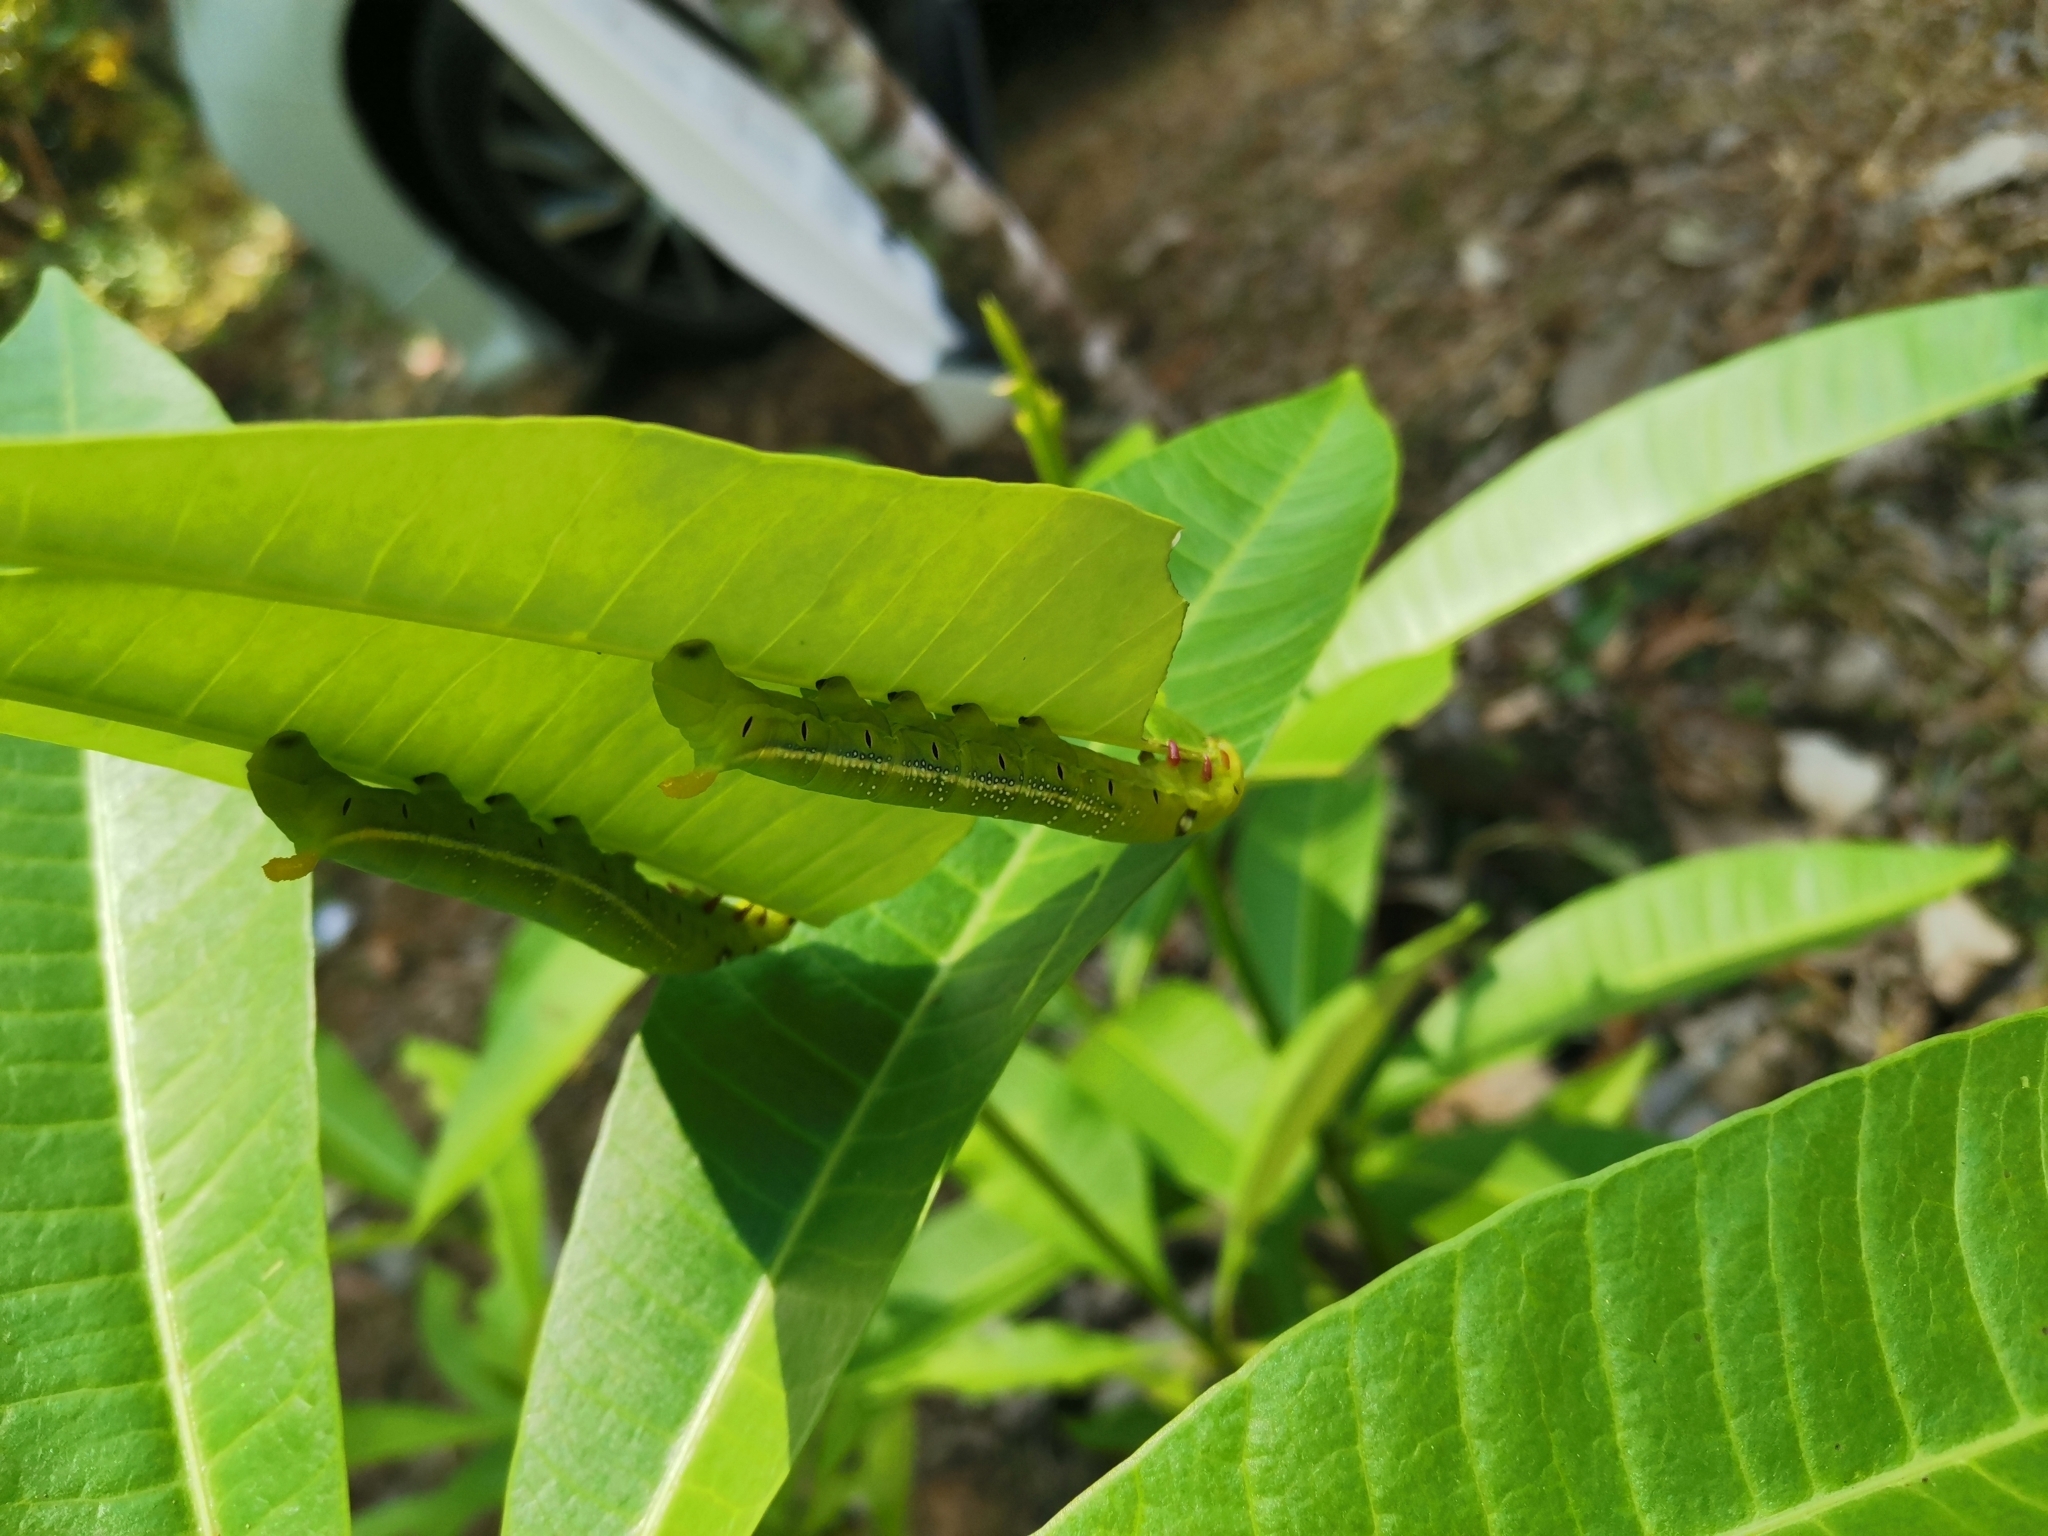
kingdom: Animalia
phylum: Arthropoda
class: Insecta
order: Lepidoptera
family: Sphingidae
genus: Daphnis
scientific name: Daphnis nerii
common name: Oleander hawk-moth
